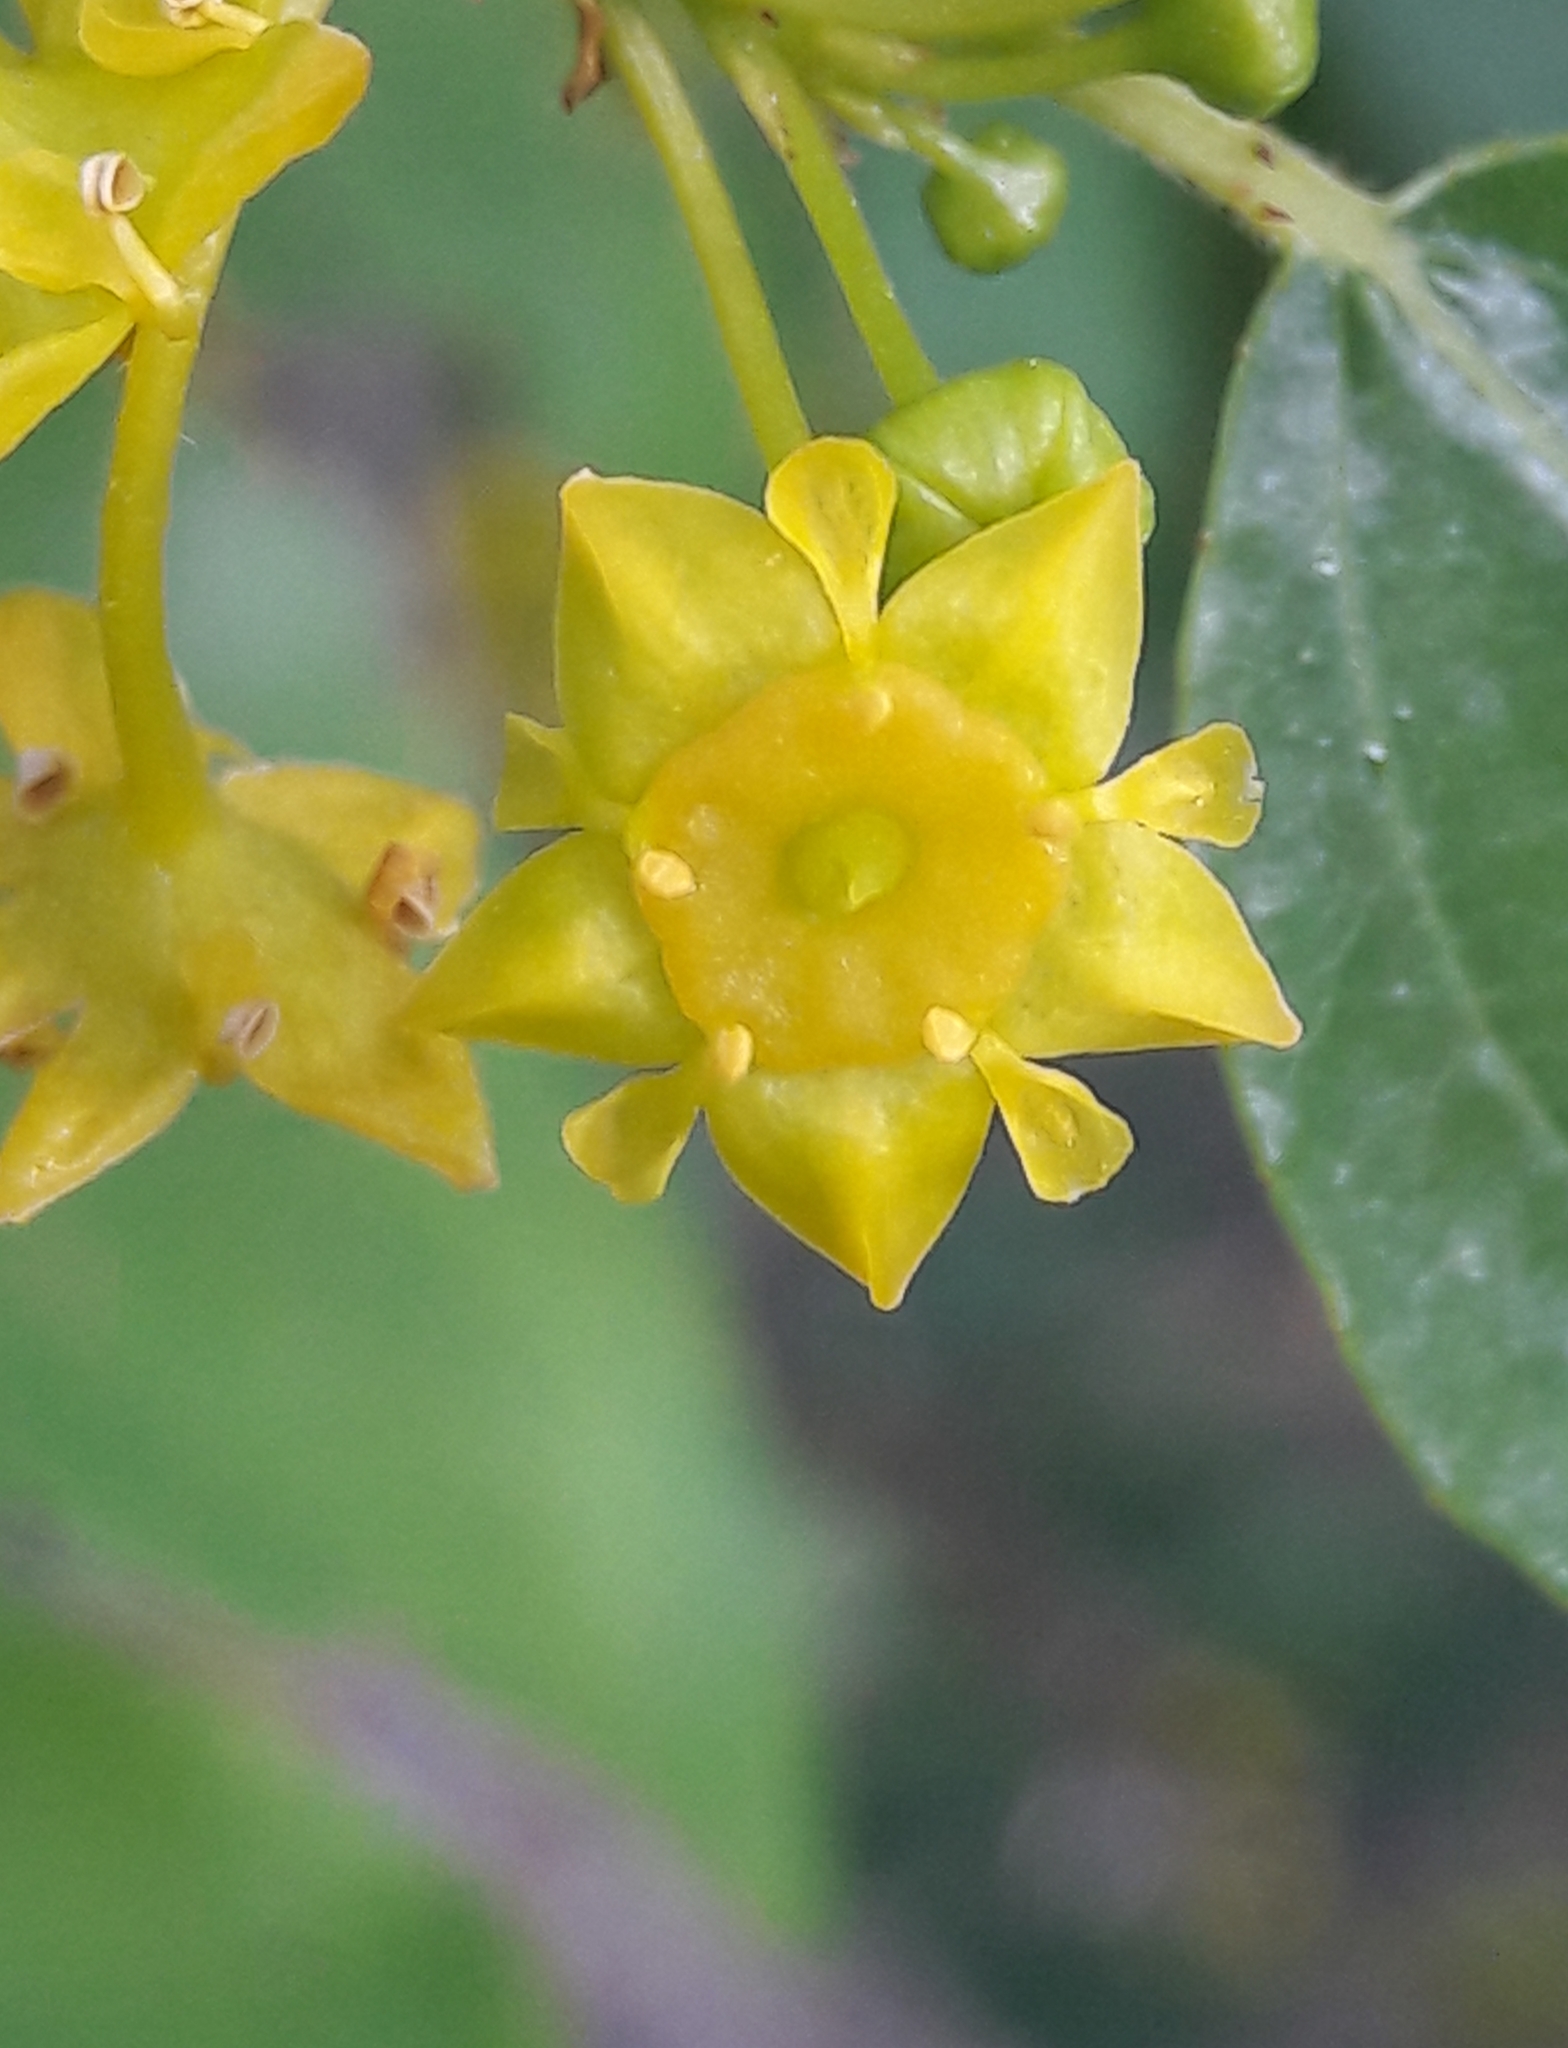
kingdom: Plantae
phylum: Tracheophyta
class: Magnoliopsida
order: Rosales
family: Rhamnaceae
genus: Paliurus
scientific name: Paliurus spina-christi
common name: Jeruselem thorn
